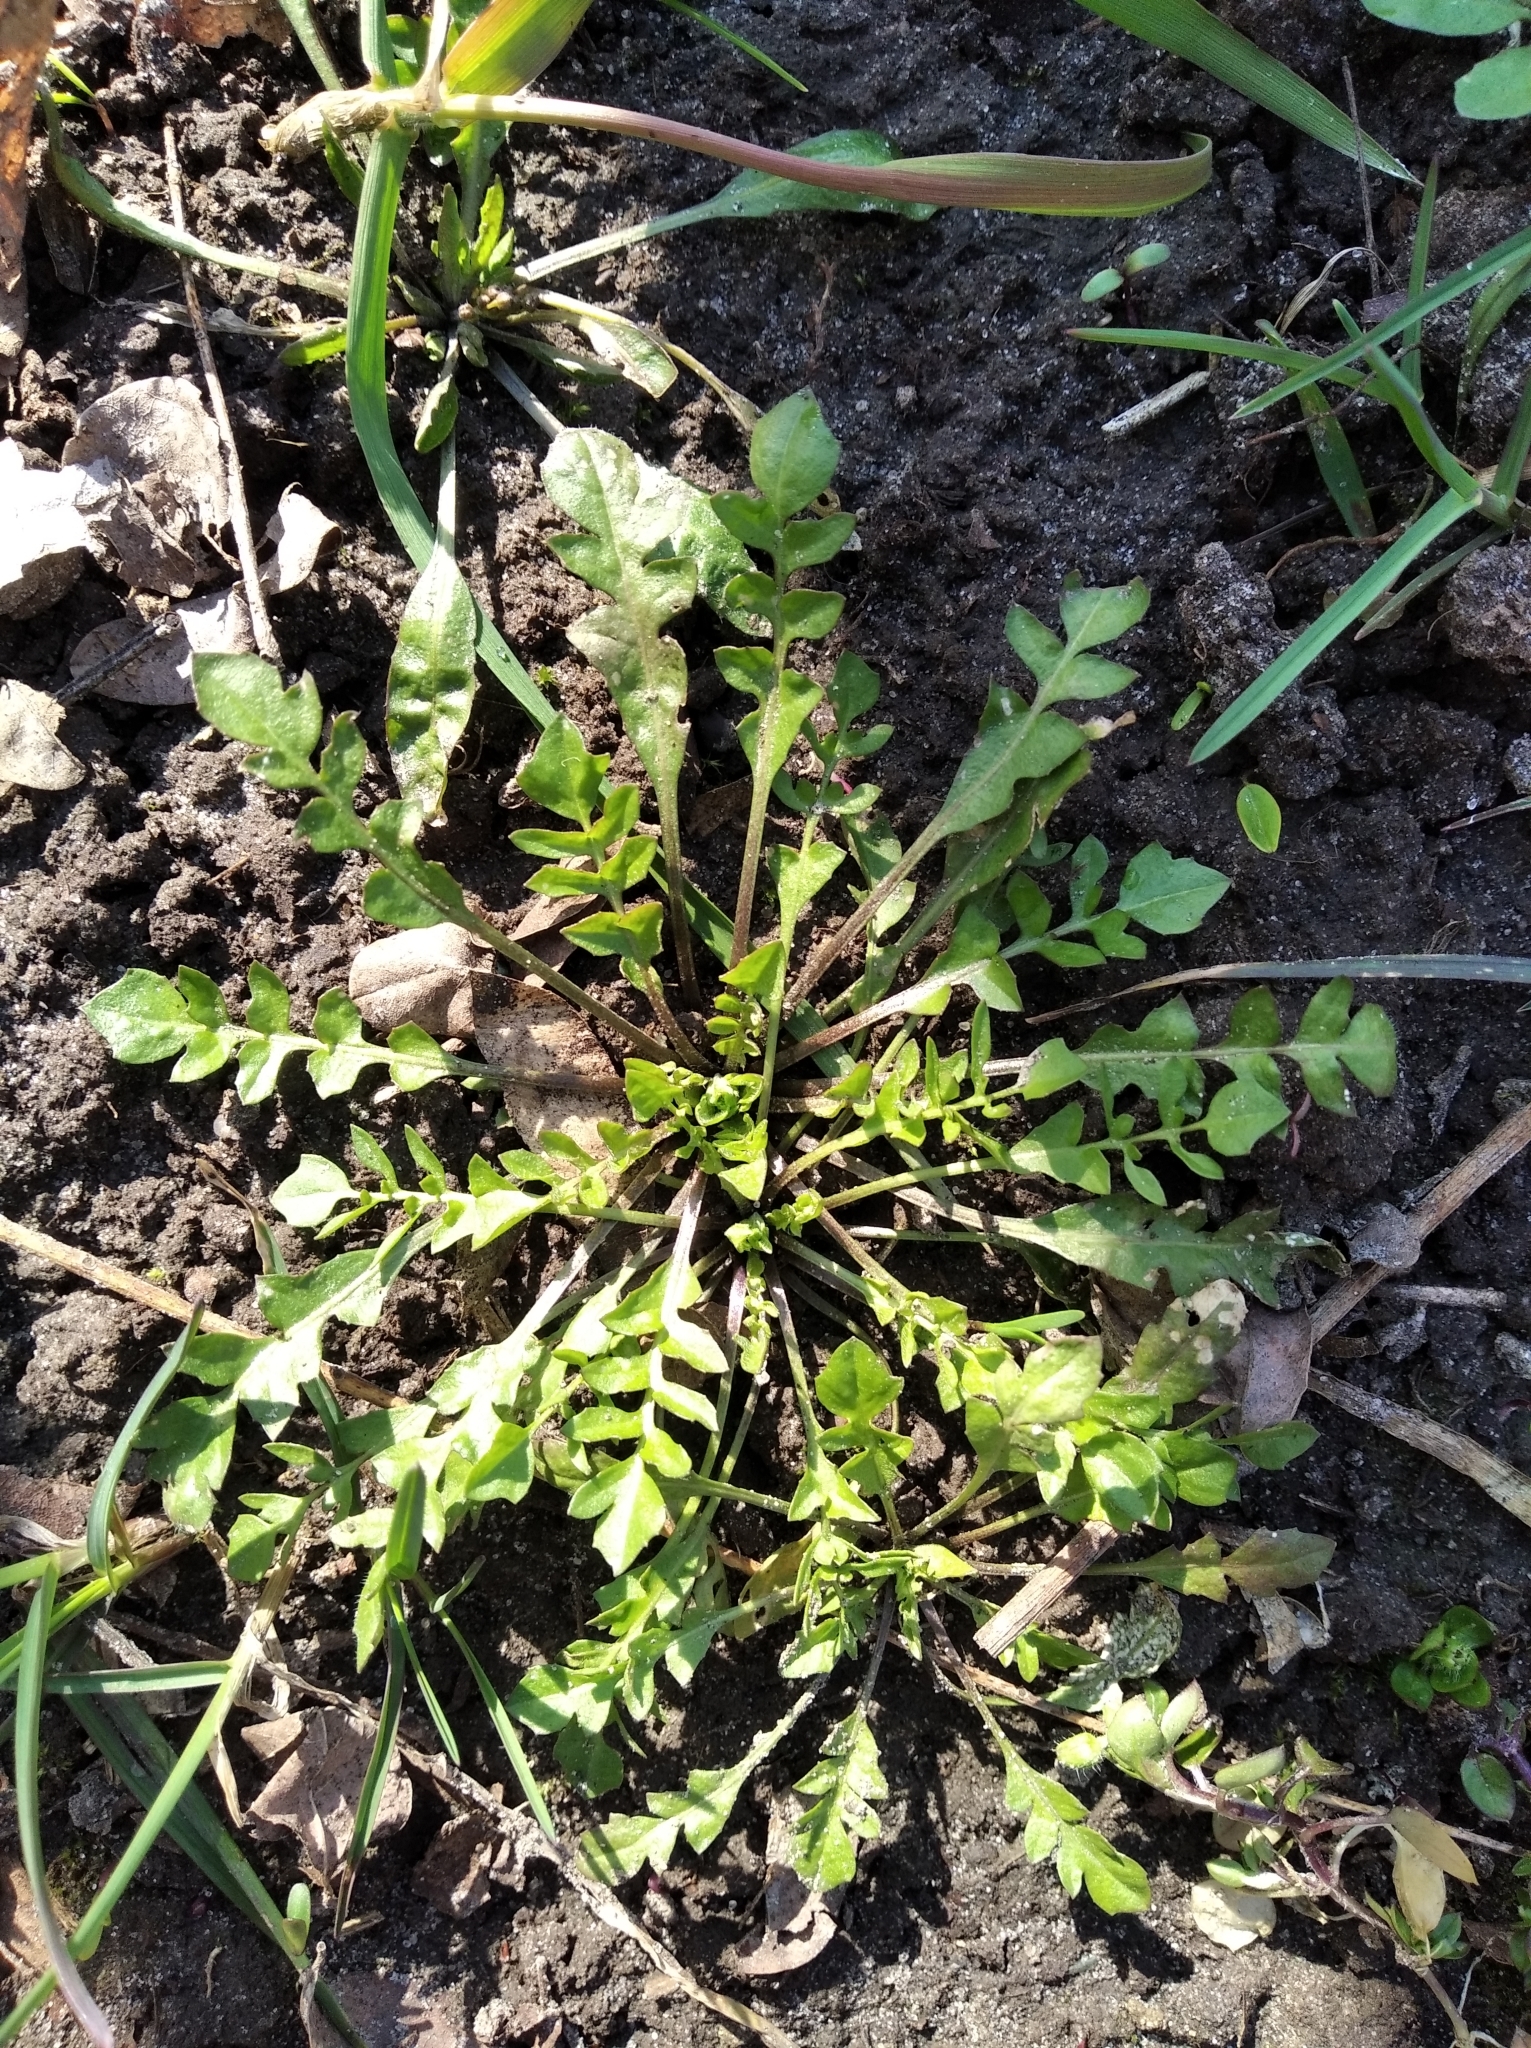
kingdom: Plantae
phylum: Tracheophyta
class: Magnoliopsida
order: Brassicales
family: Brassicaceae
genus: Capsella
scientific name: Capsella bursa-pastoris
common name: Shepherd's purse
